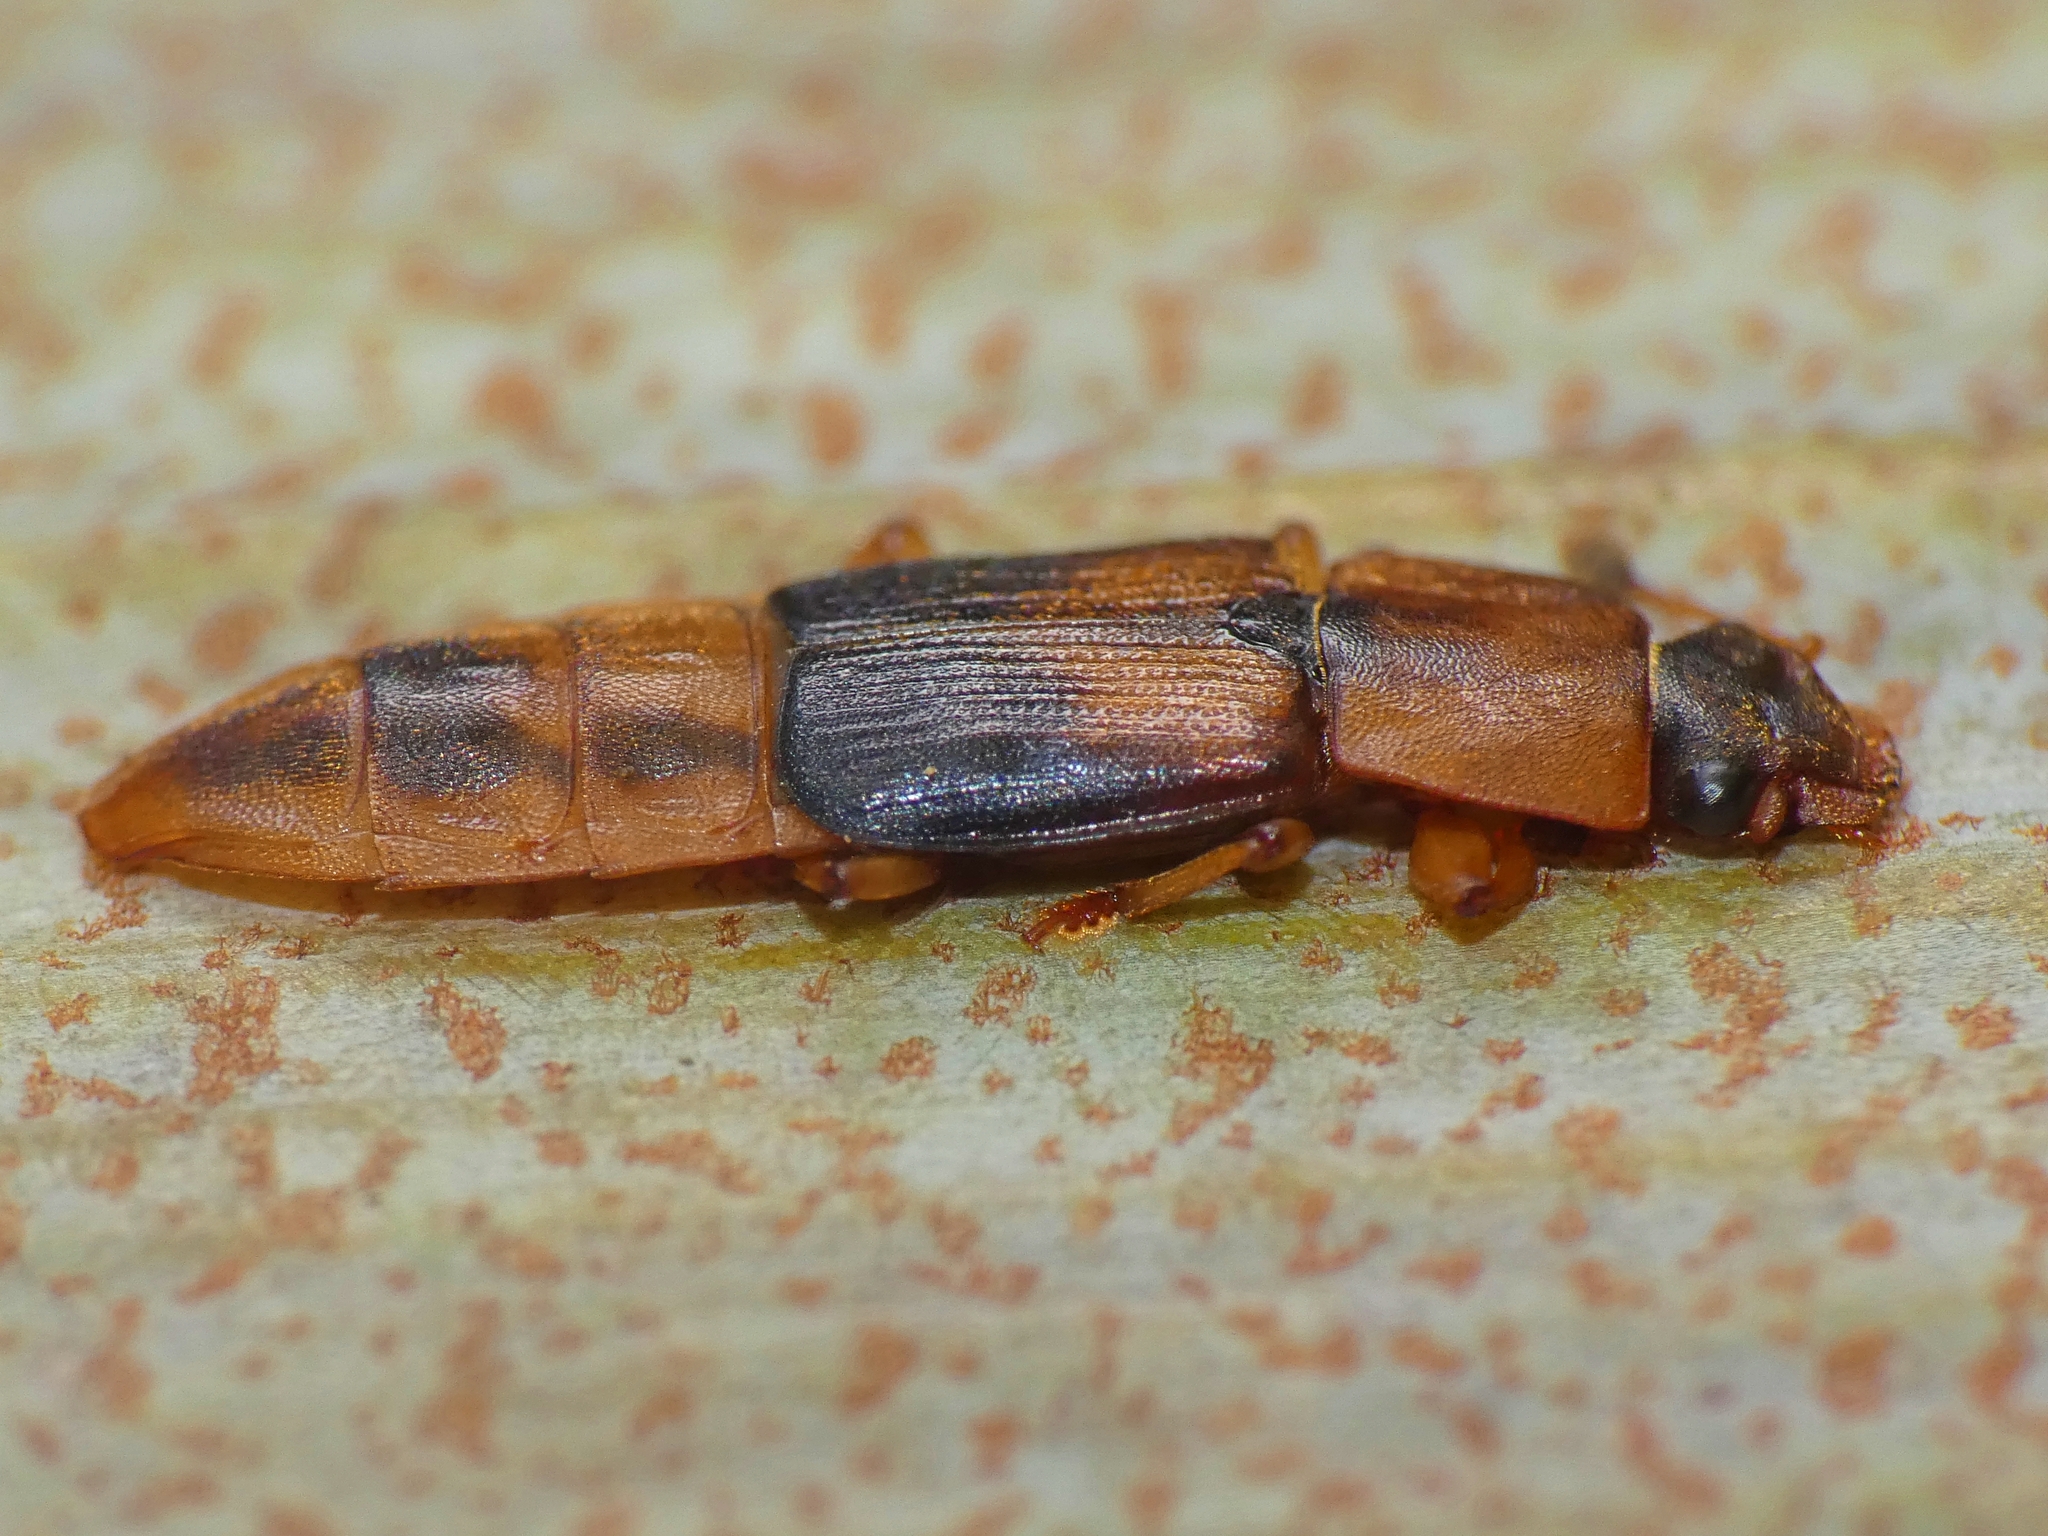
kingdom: Animalia
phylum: Arthropoda
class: Insecta
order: Coleoptera
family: Nitidulidae
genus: Brittonoma
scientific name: Brittonoma mandibulare
